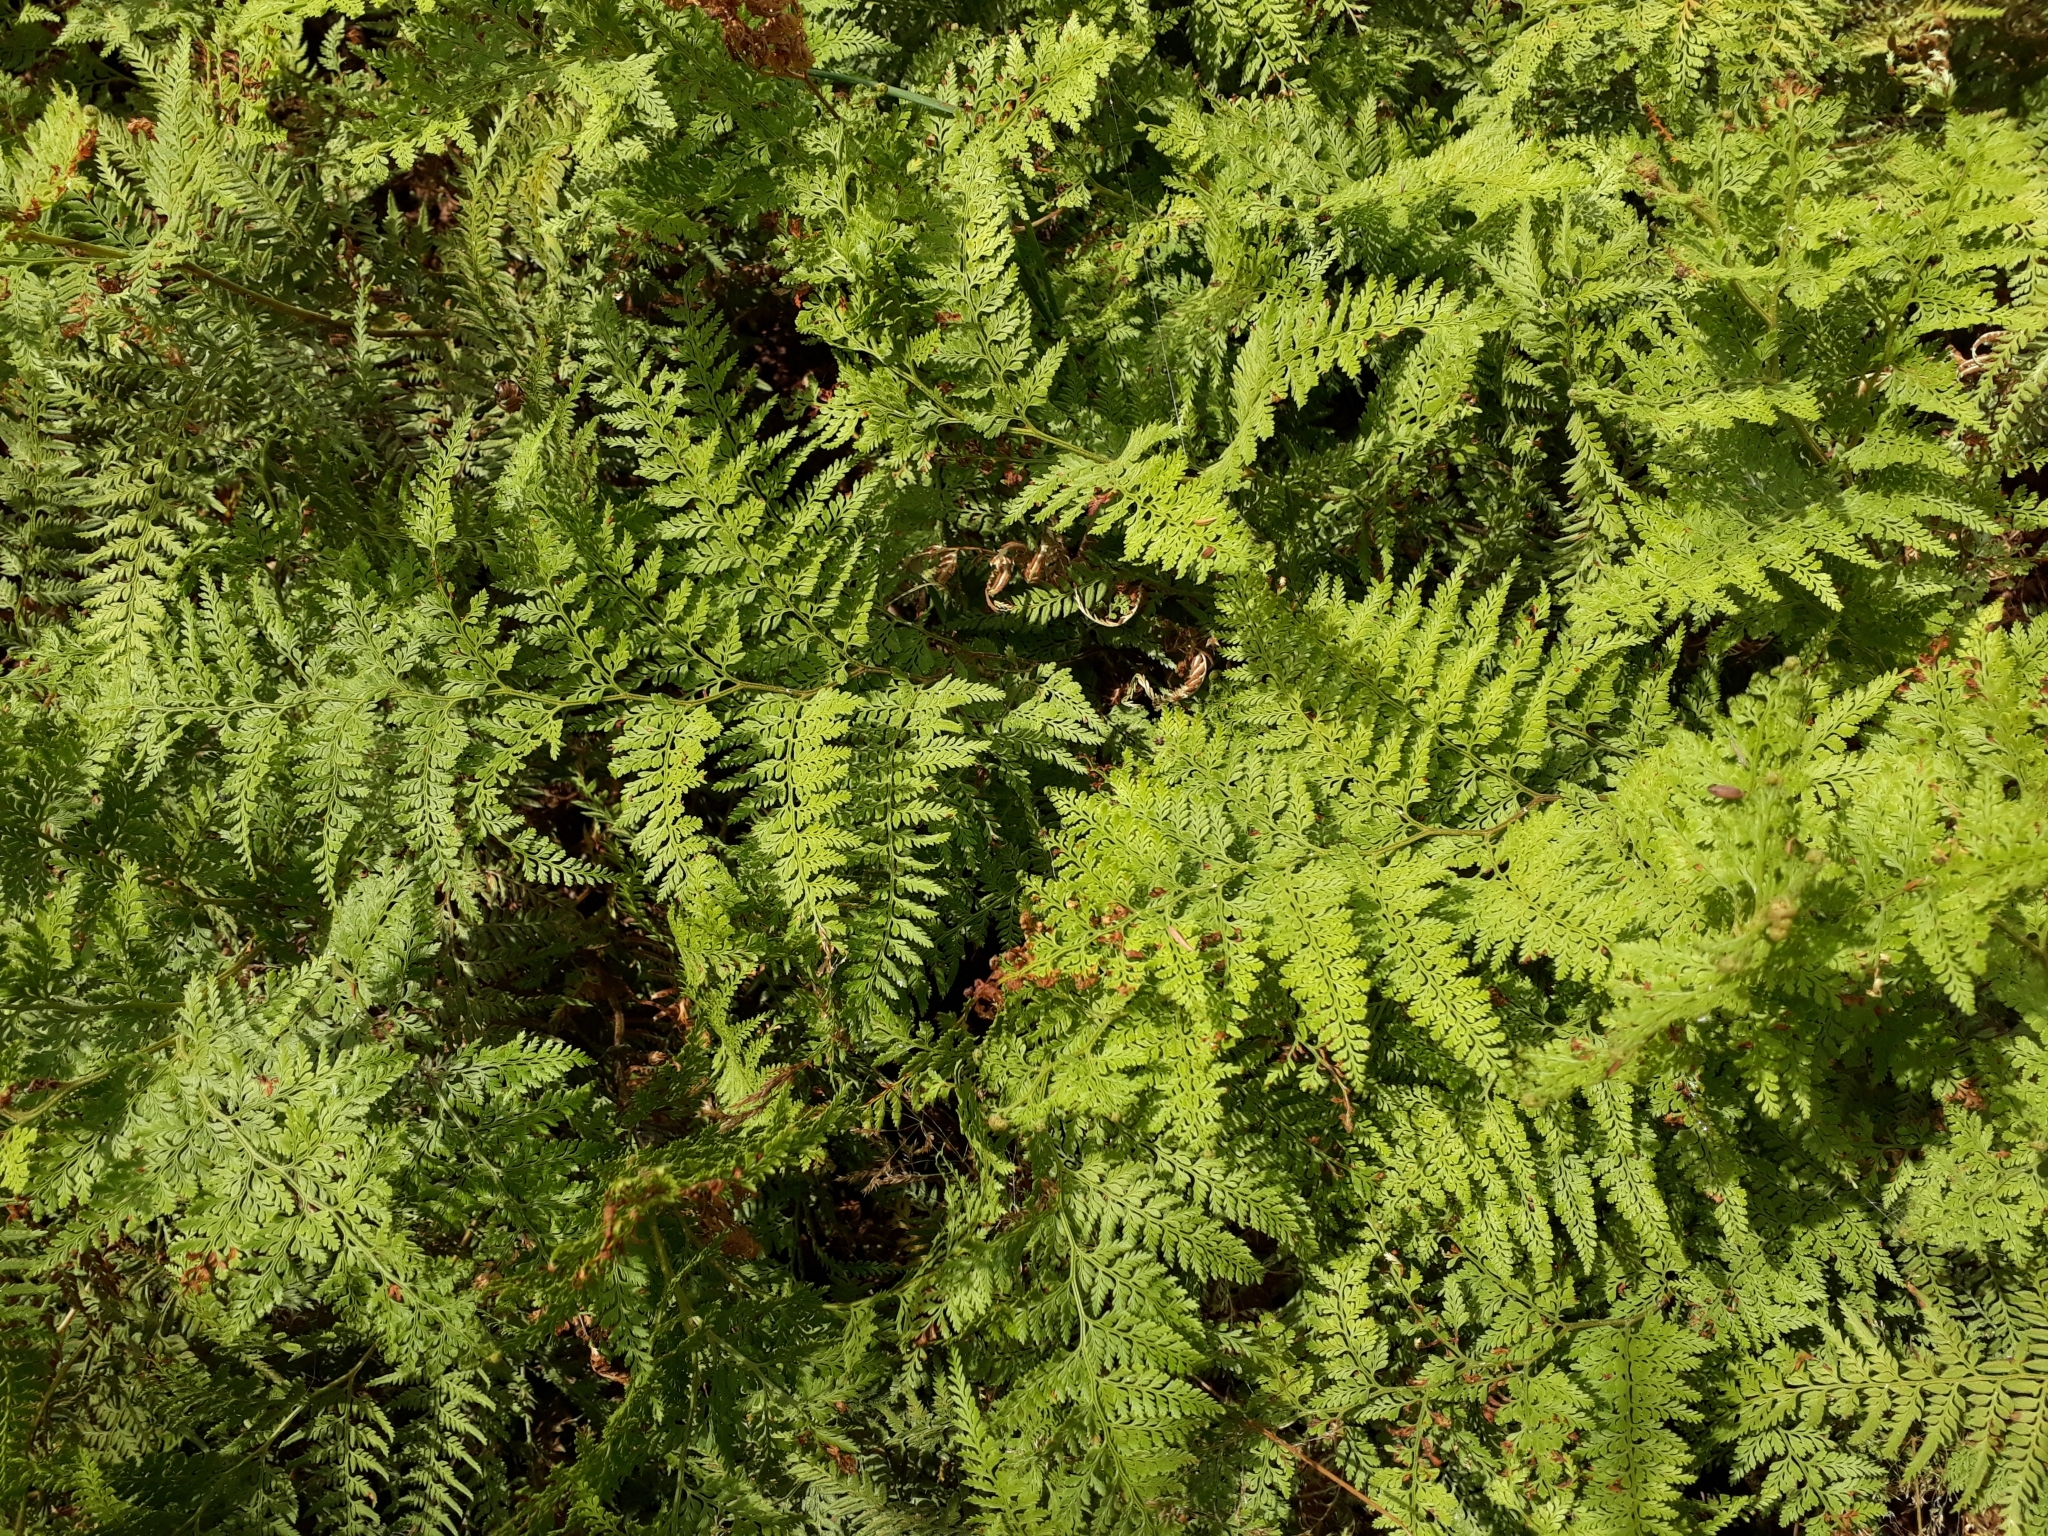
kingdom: Plantae
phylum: Tracheophyta
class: Polypodiopsida
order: Polypodiales
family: Dennstaedtiaceae
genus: Paesia
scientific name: Paesia scaberula
